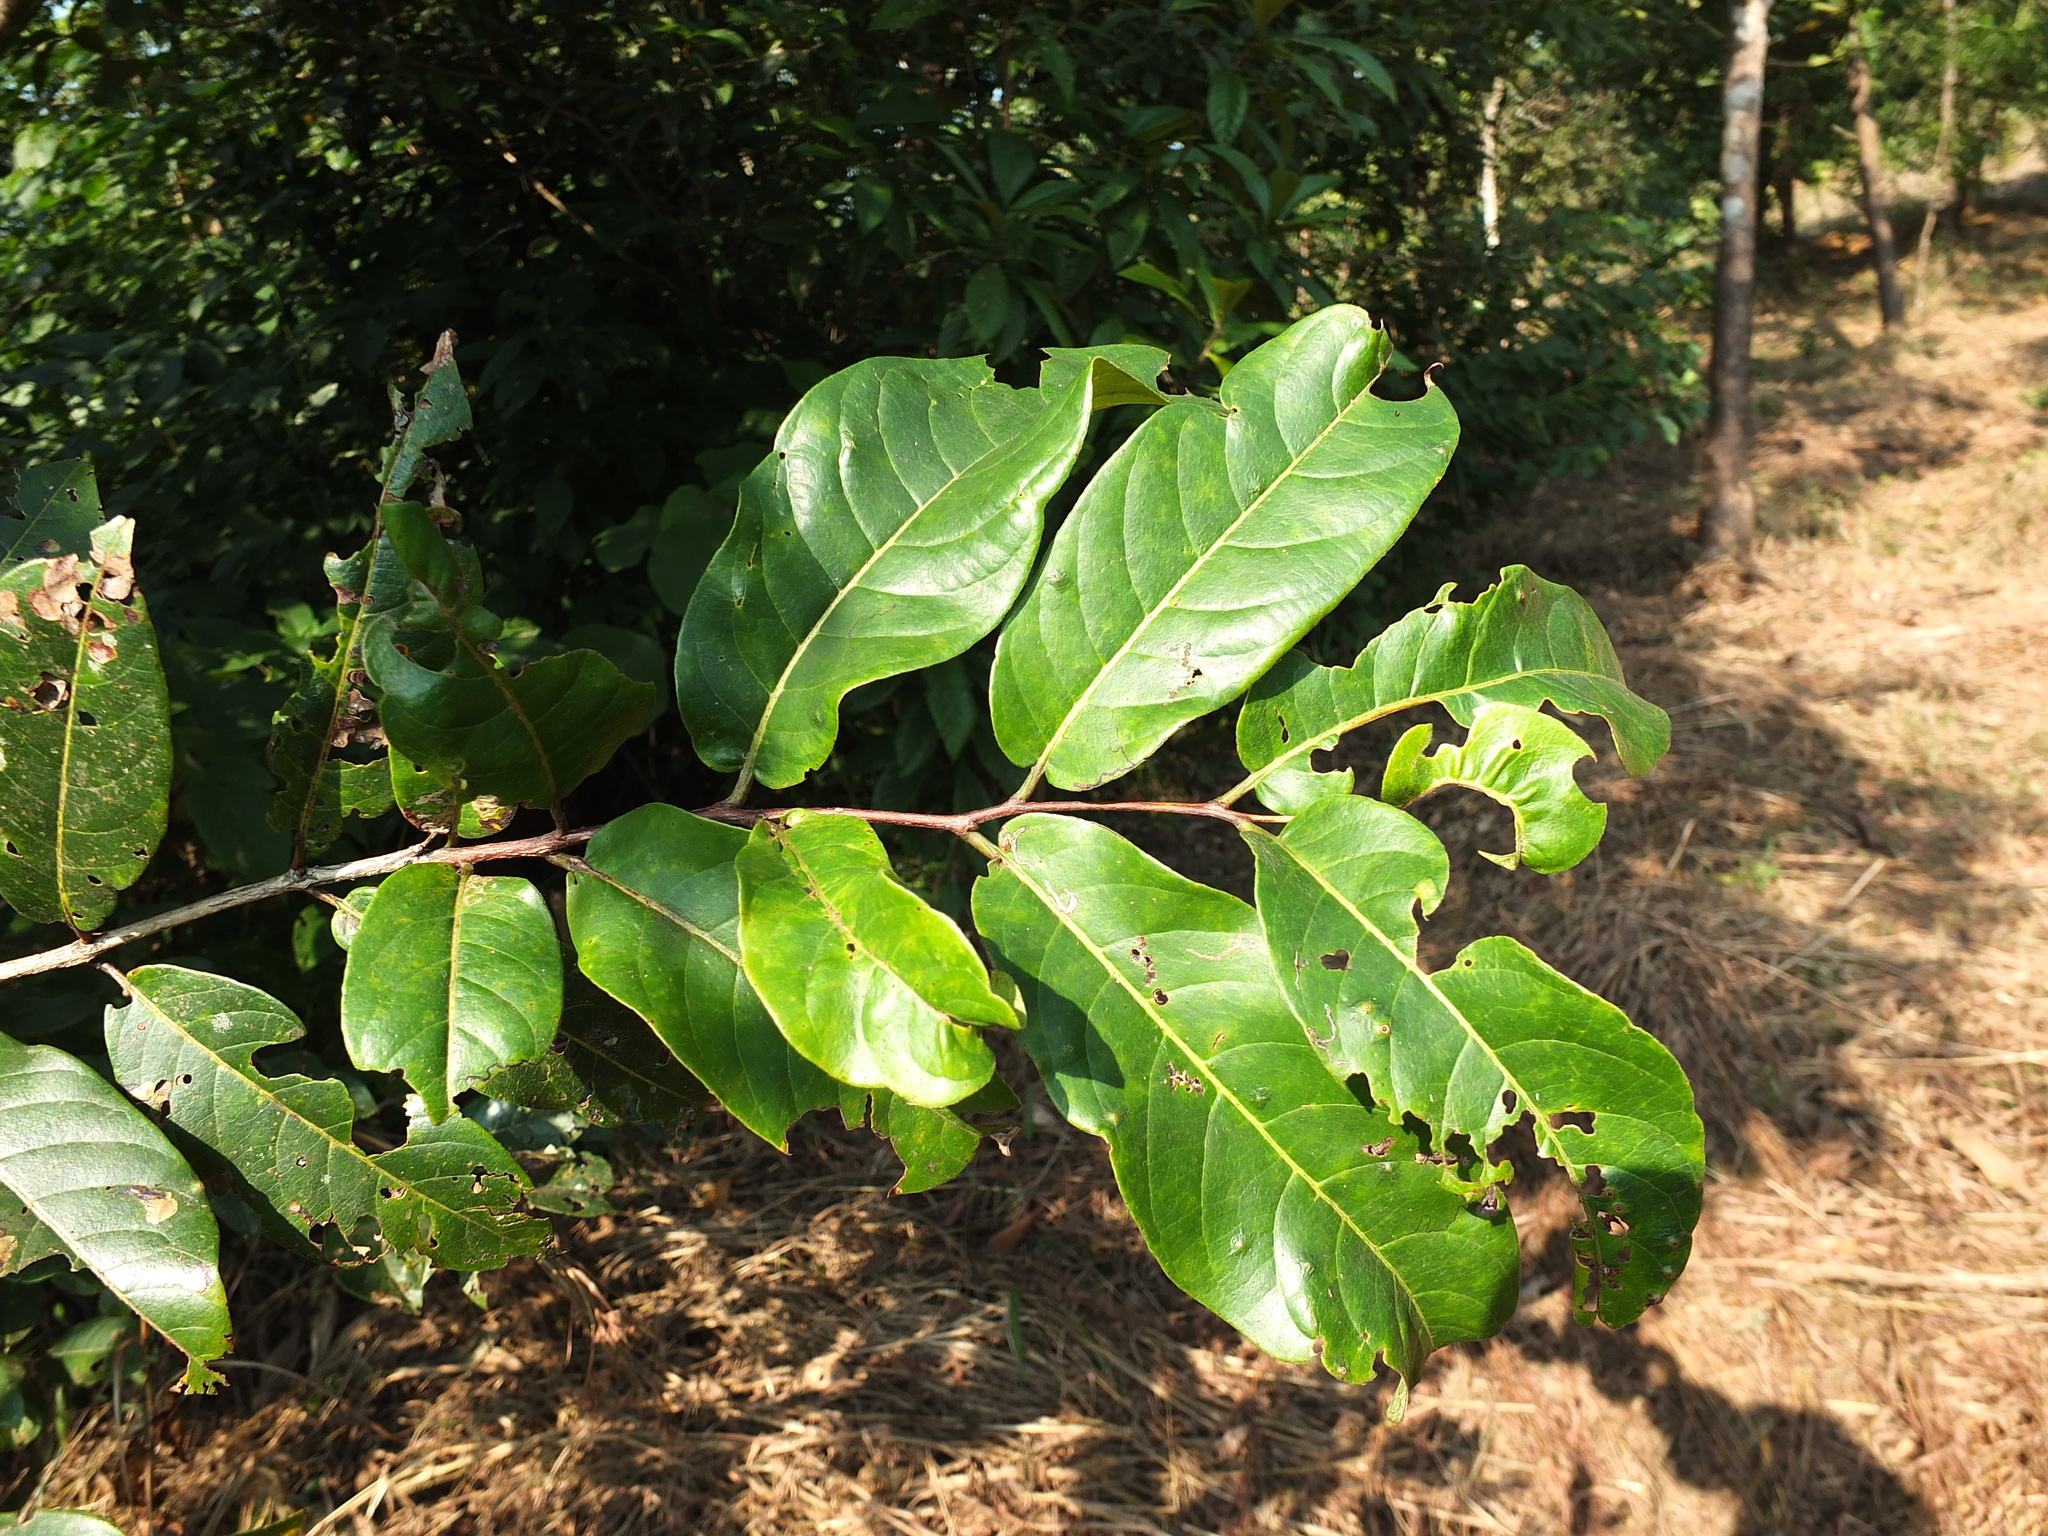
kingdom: Plantae
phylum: Tracheophyta
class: Magnoliopsida
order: Myrtales
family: Combretaceae
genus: Terminalia
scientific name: Terminalia paniculata
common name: Flowering murdah
